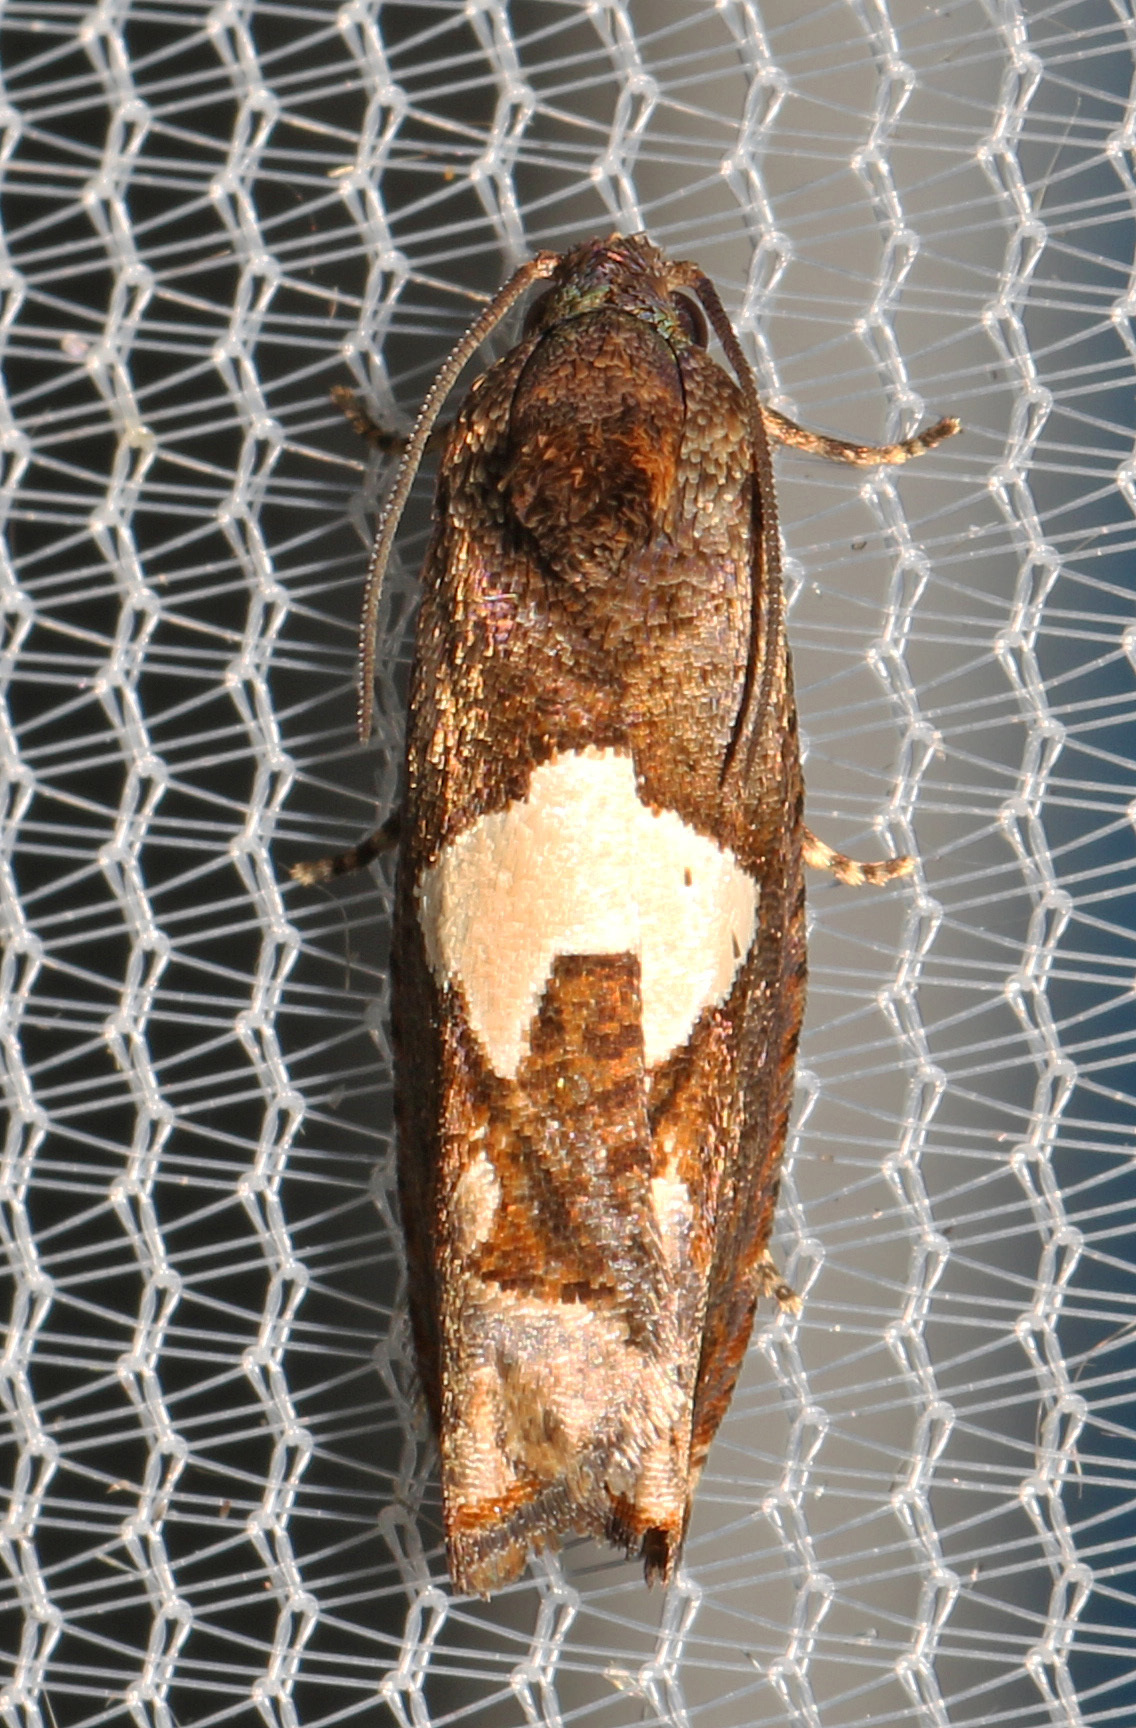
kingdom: Animalia
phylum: Arthropoda
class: Insecta
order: Lepidoptera
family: Tortricidae
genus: Epiblema
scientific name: Epiblema otiosana
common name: Bidens borer moth
